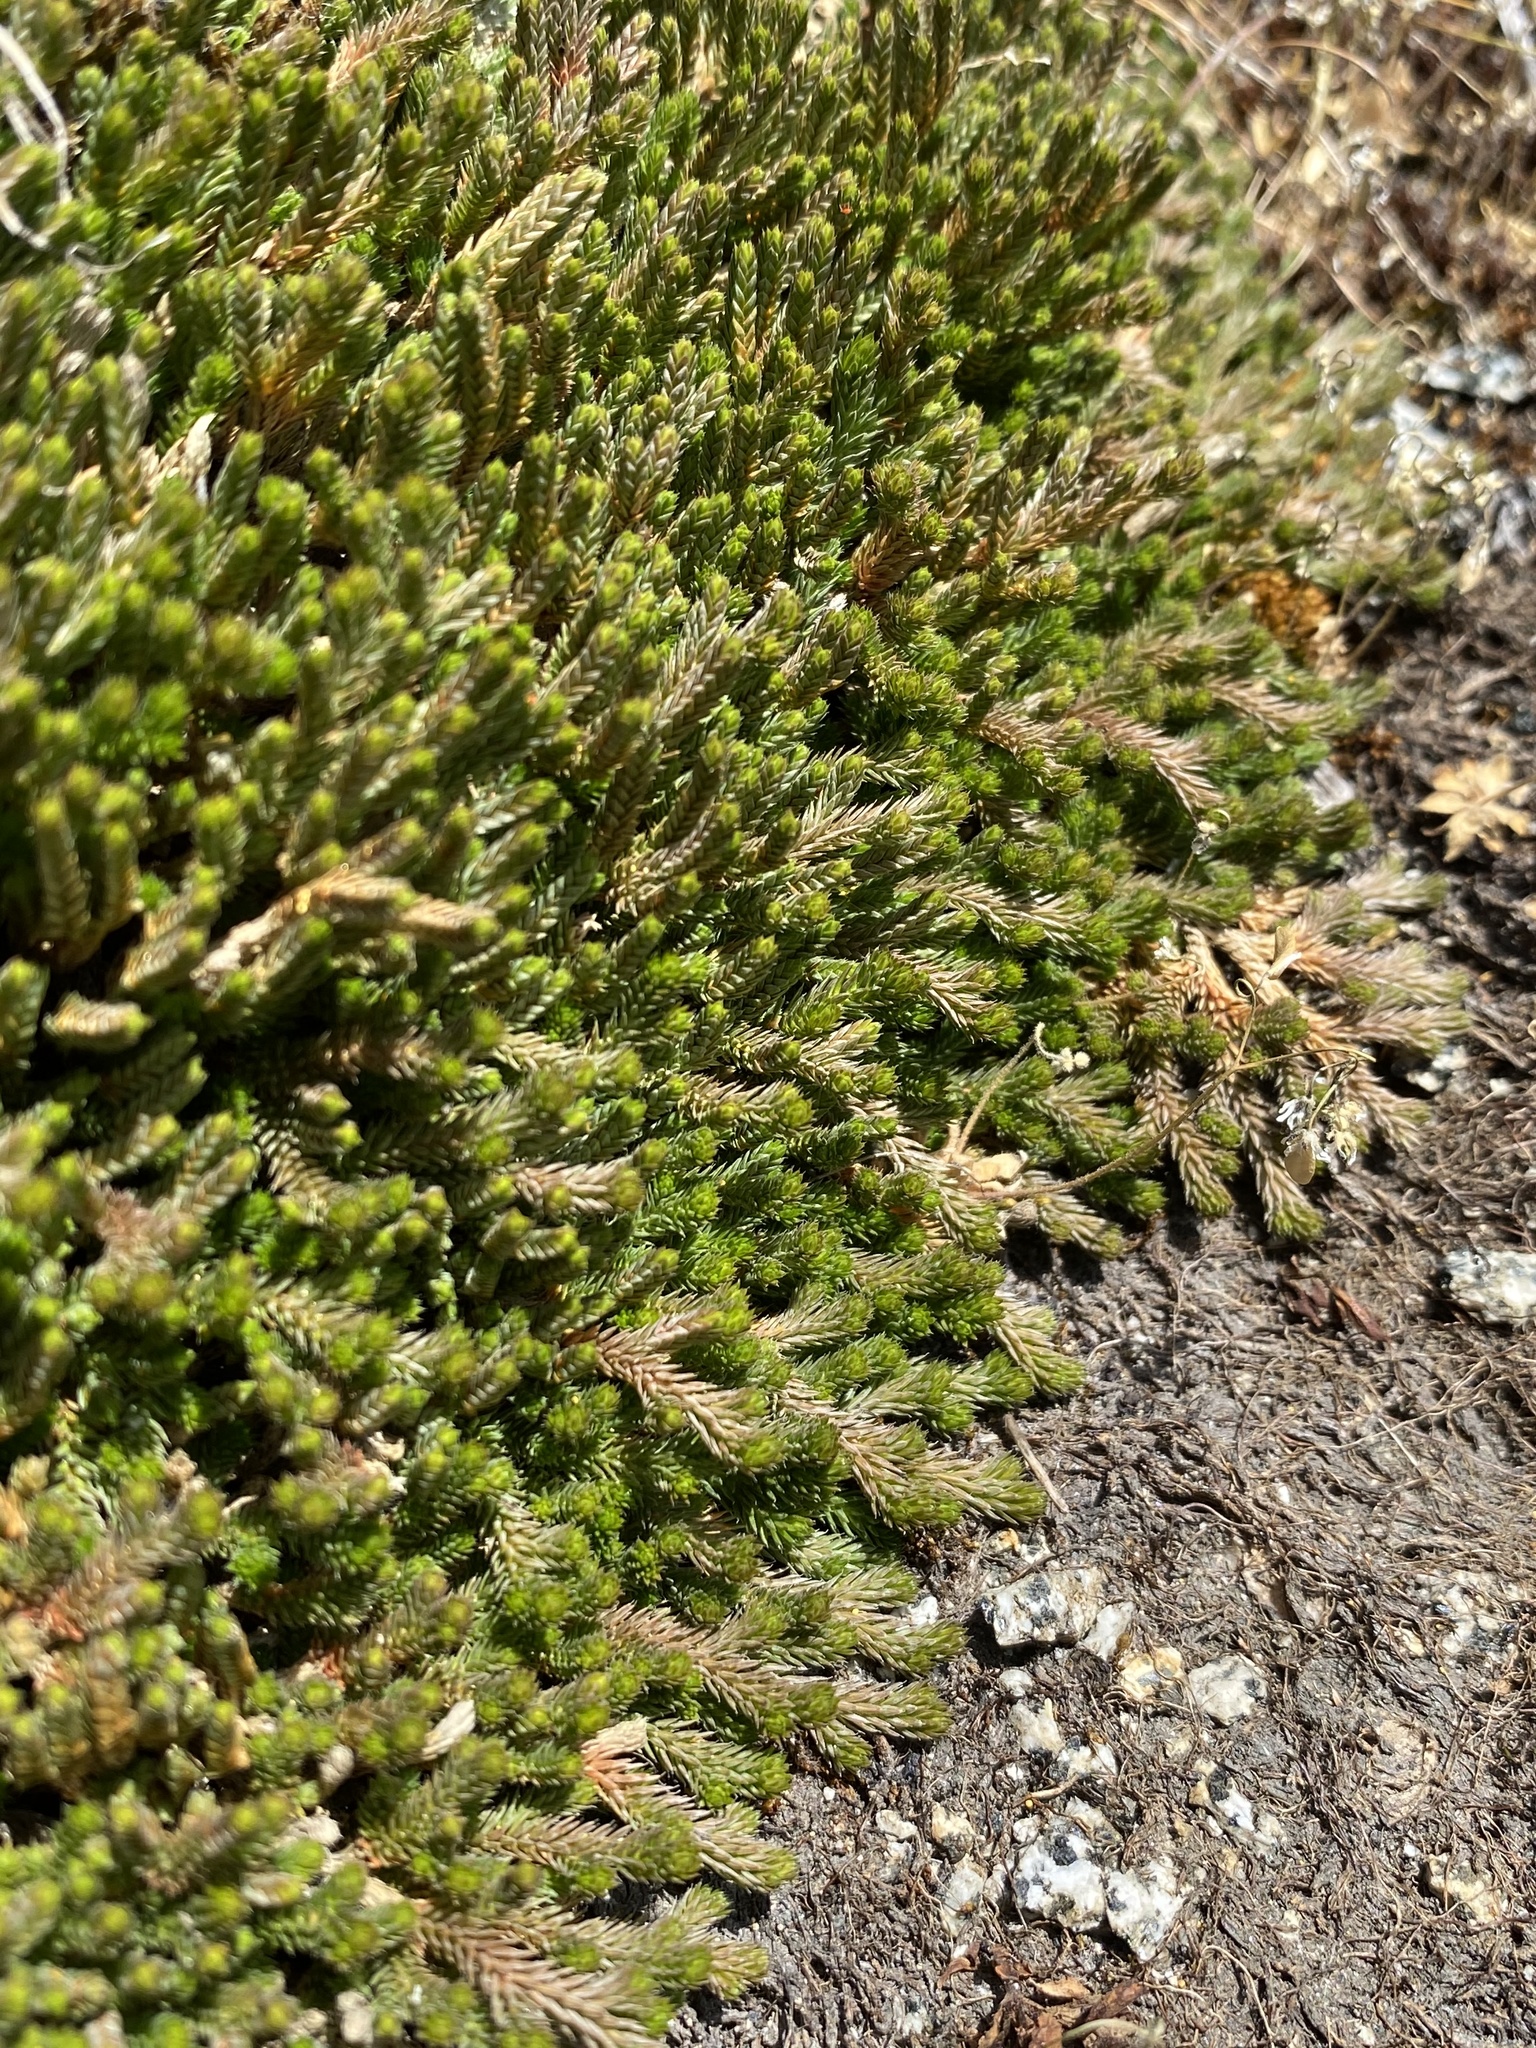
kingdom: Plantae
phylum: Tracheophyta
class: Lycopodiopsida
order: Selaginellales
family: Selaginellaceae
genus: Selaginella
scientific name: Selaginella wallacei
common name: Wallace's selaginella
